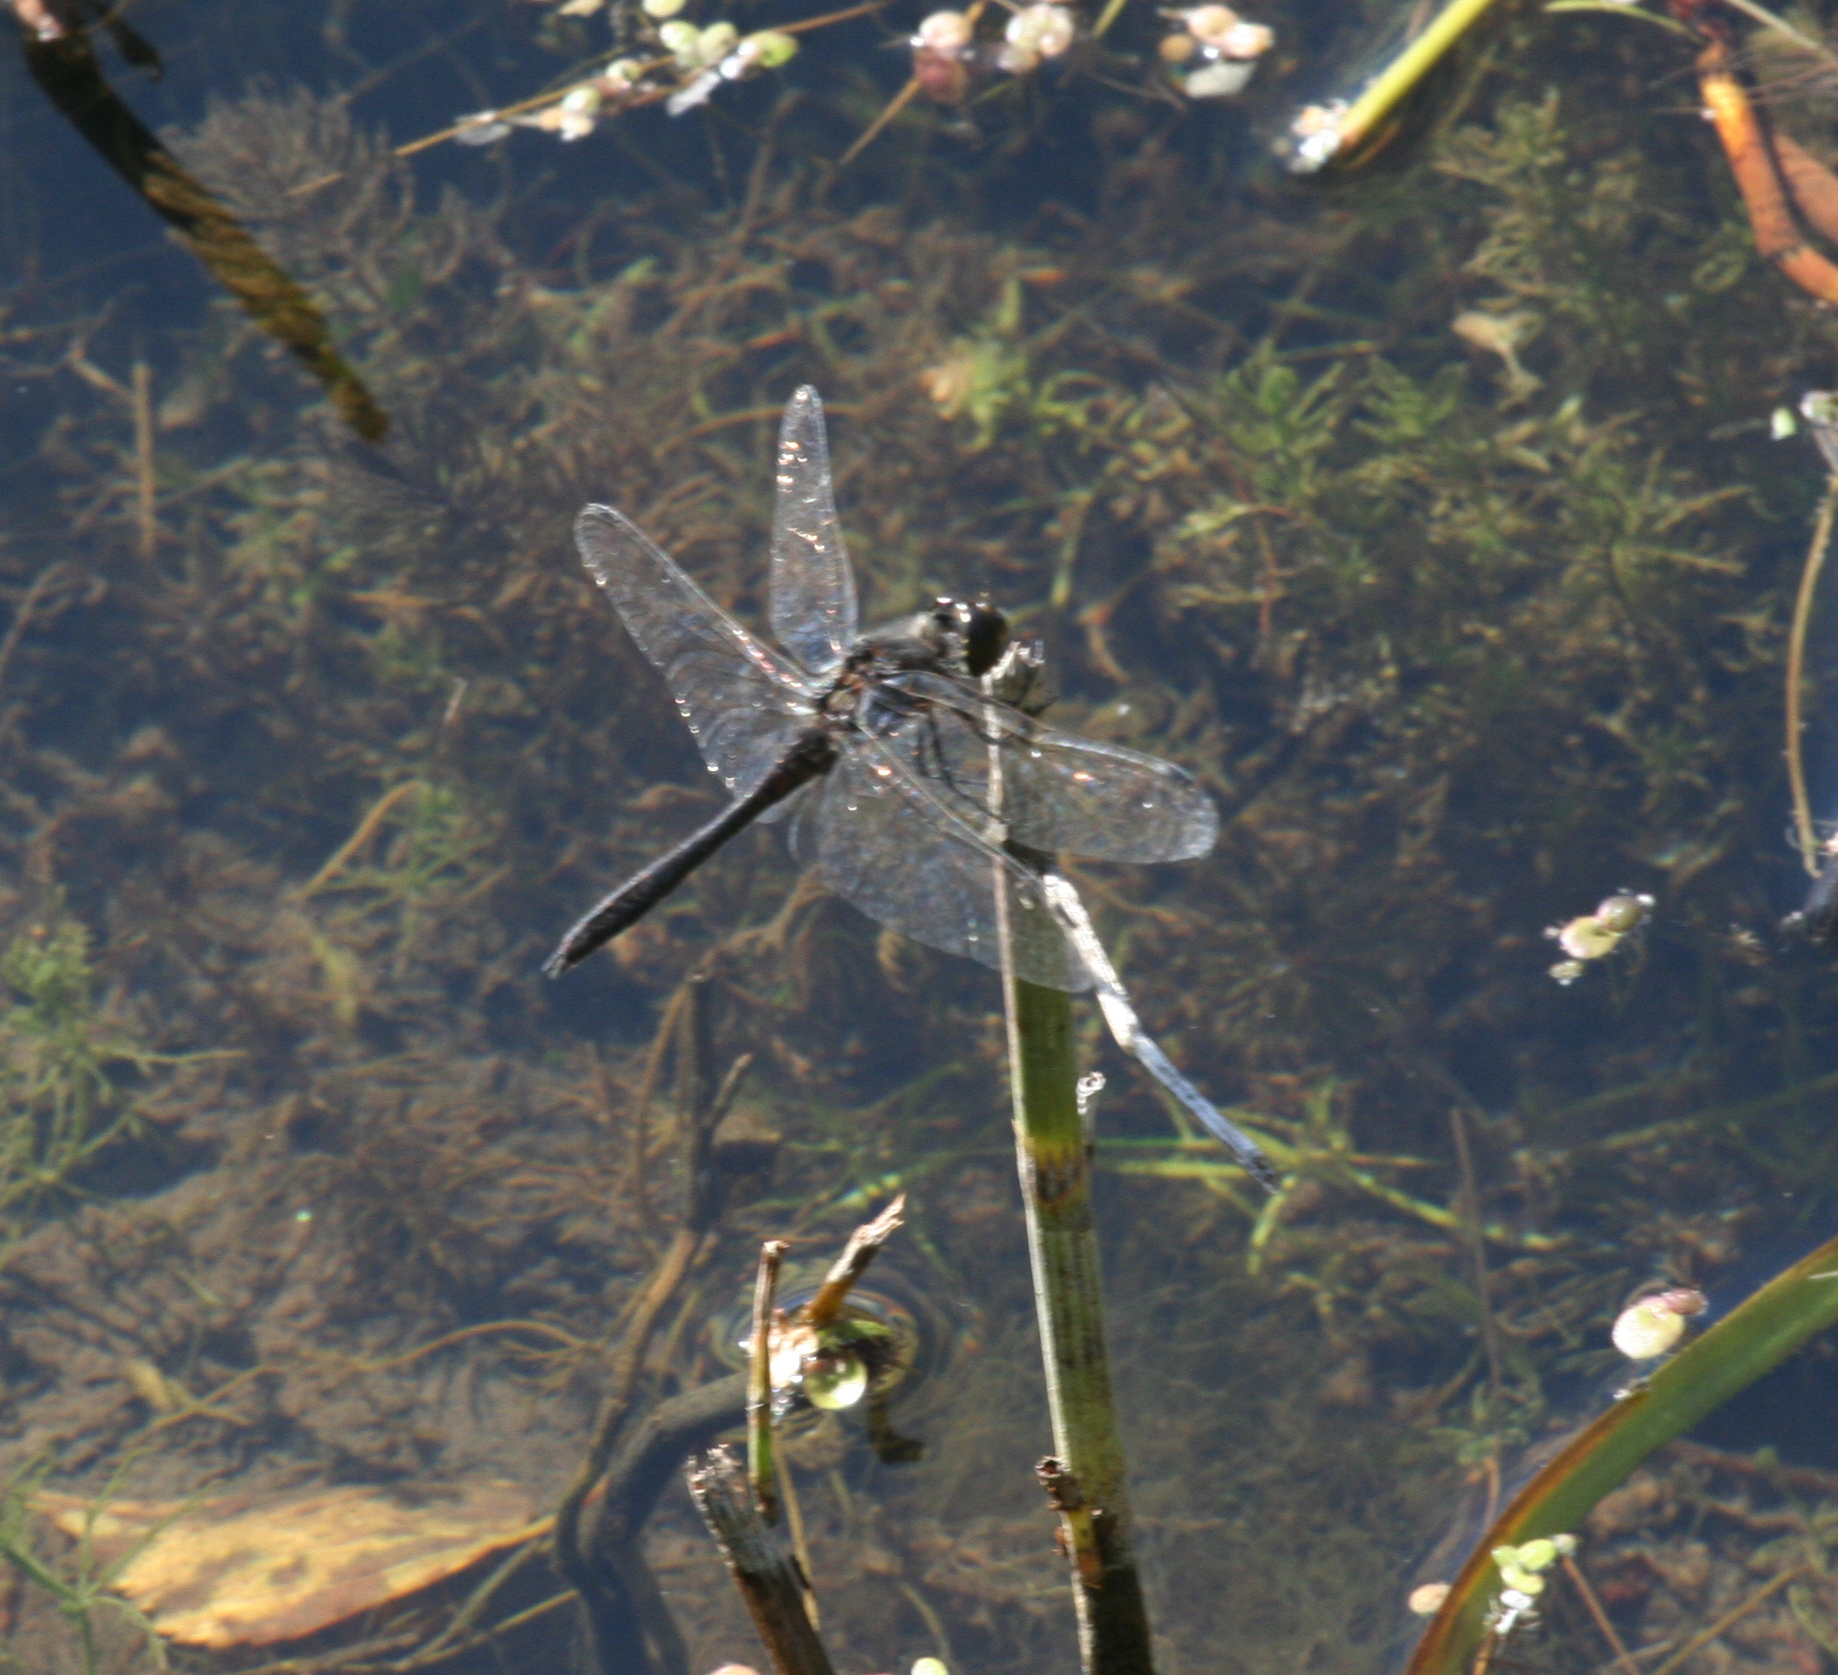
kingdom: Animalia
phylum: Arthropoda
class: Insecta
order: Odonata
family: Libellulidae
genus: Sympetrum
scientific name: Sympetrum danae
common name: Black darter
